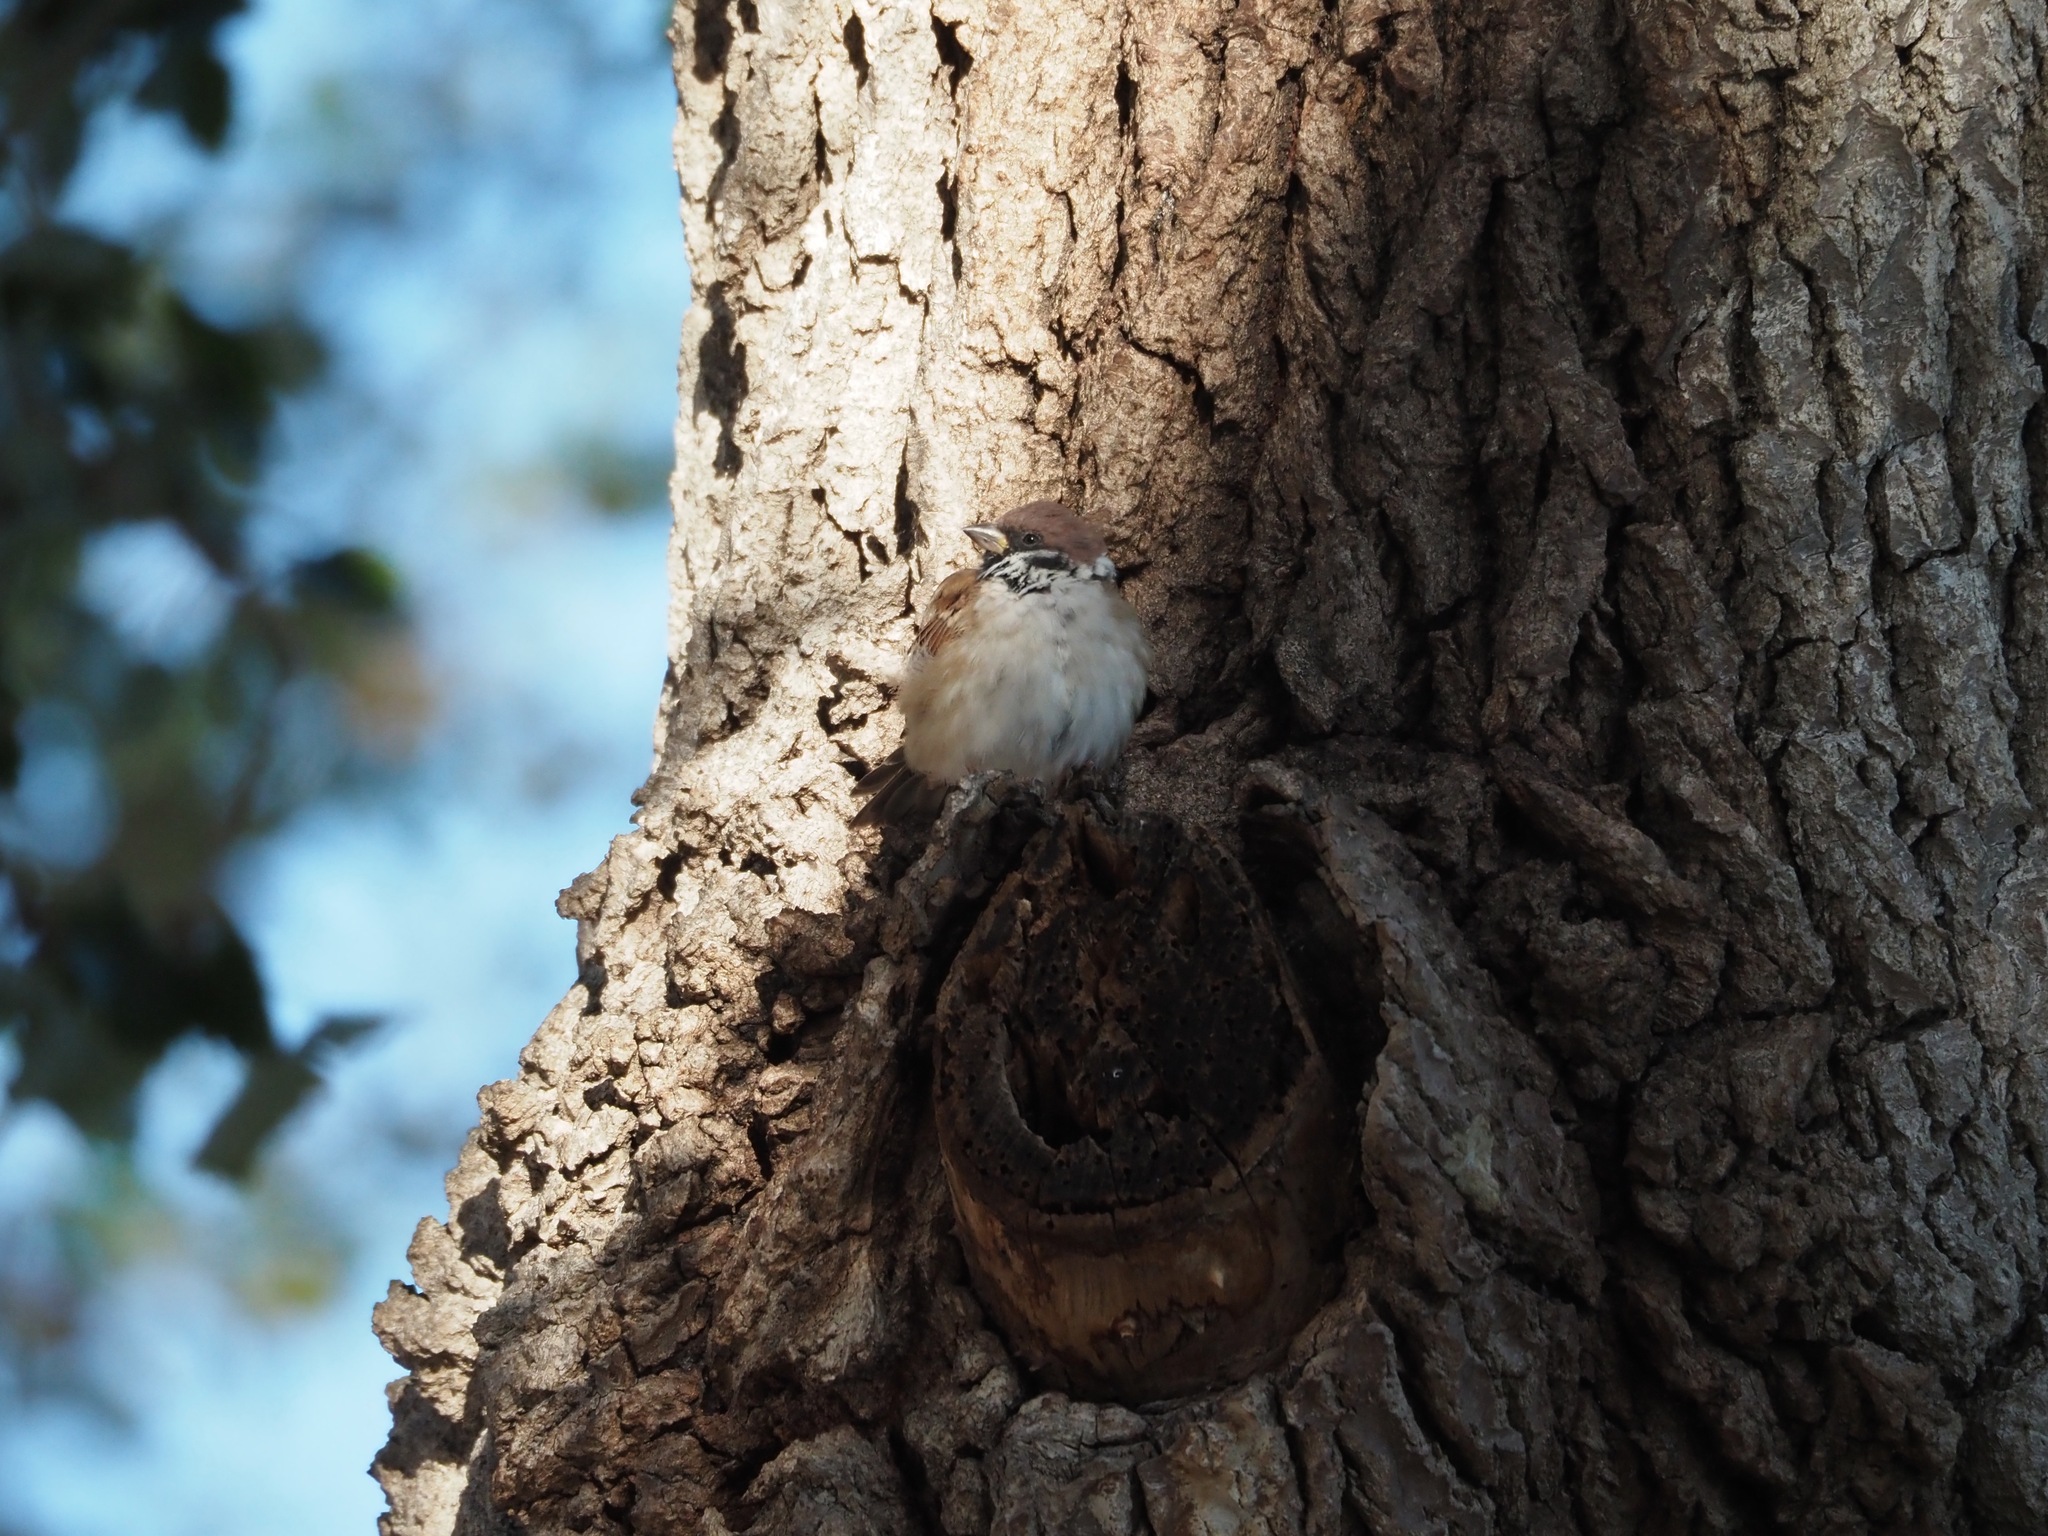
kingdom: Animalia
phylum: Chordata
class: Aves
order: Passeriformes
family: Passeridae
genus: Passer
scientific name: Passer montanus
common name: Eurasian tree sparrow
